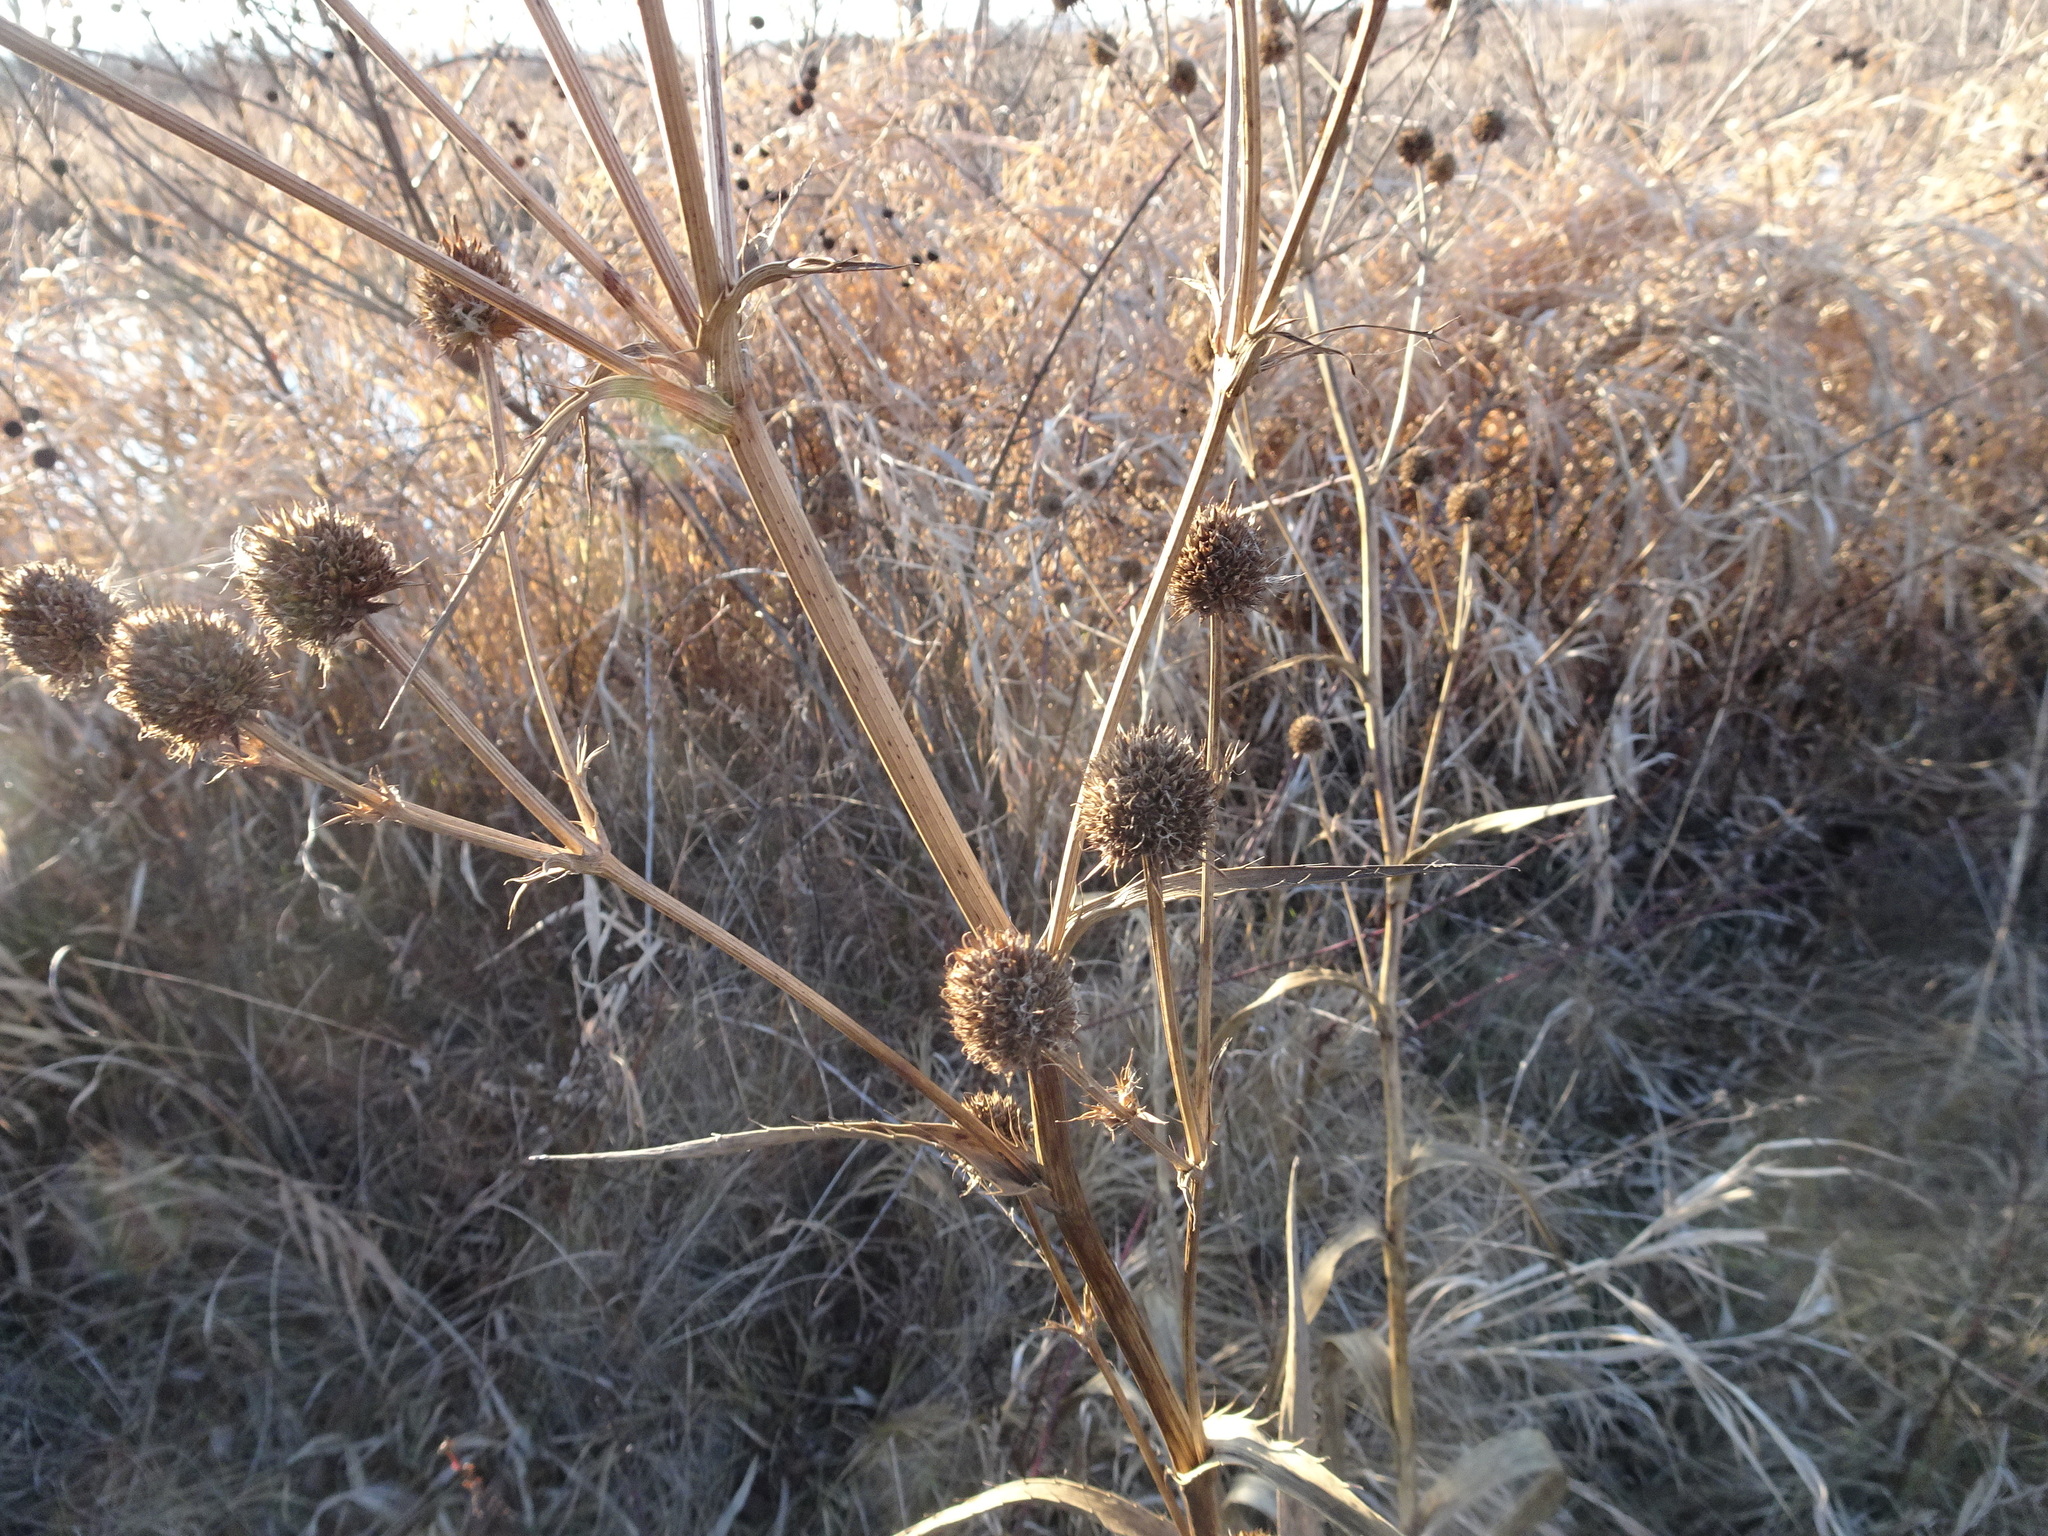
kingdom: Plantae
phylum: Tracheophyta
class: Magnoliopsida
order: Apiales
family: Apiaceae
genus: Eryngium
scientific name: Eryngium yuccifolium
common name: Button eryngo
